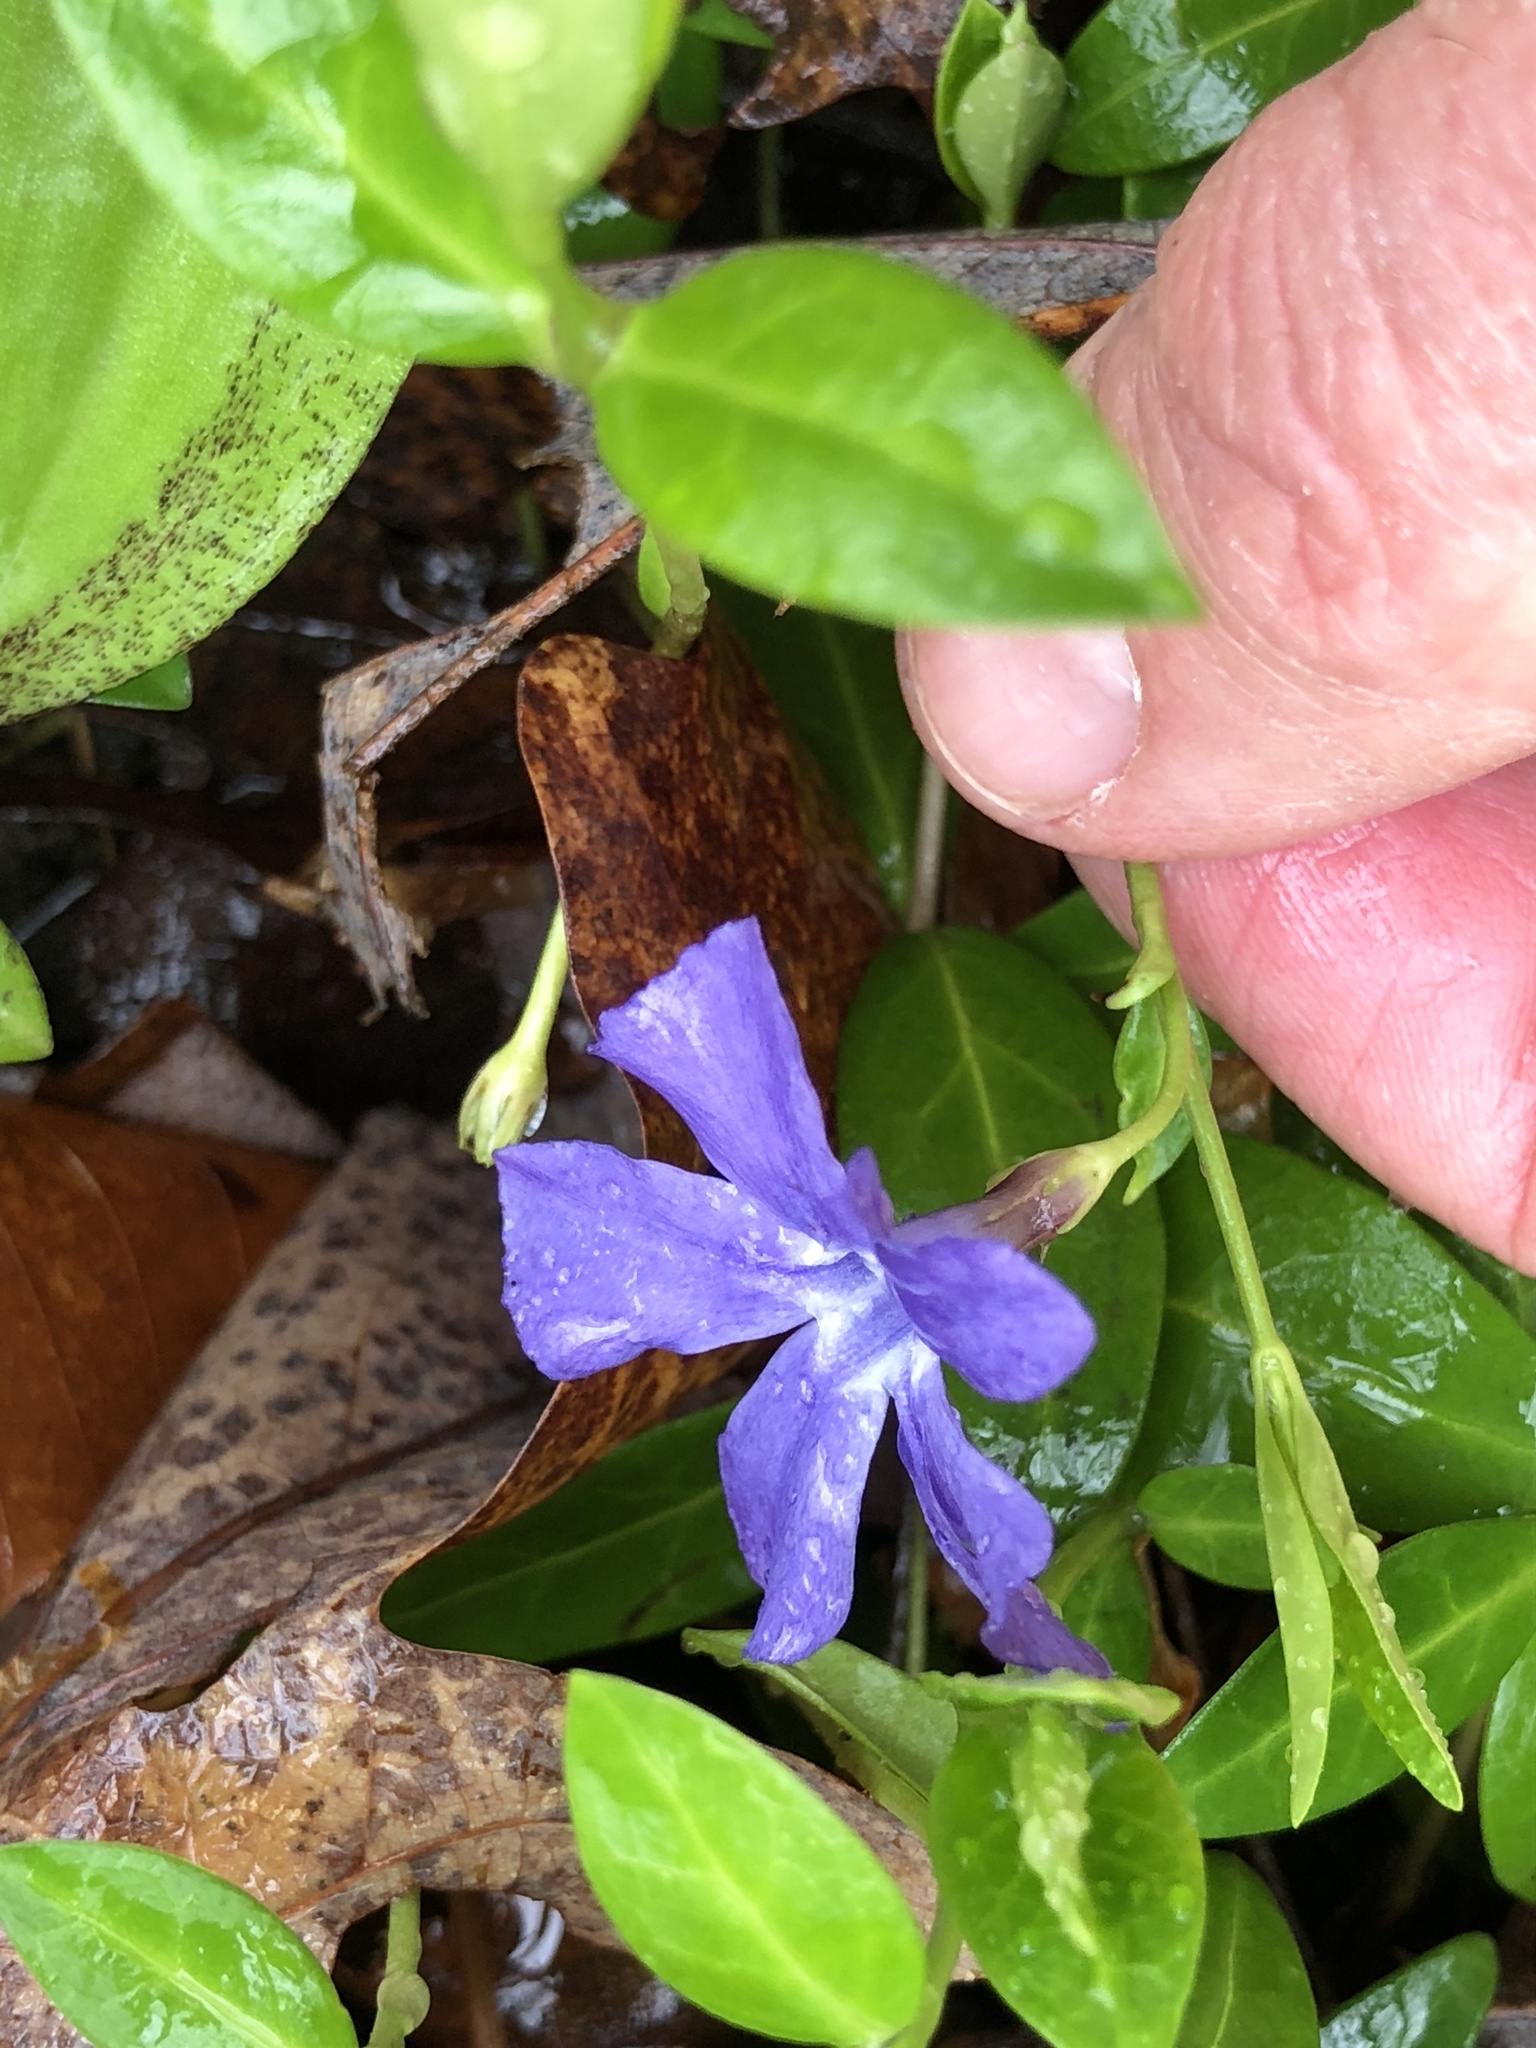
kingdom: Plantae
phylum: Tracheophyta
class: Magnoliopsida
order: Gentianales
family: Apocynaceae
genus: Vinca
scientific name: Vinca minor
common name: Lesser periwinkle
